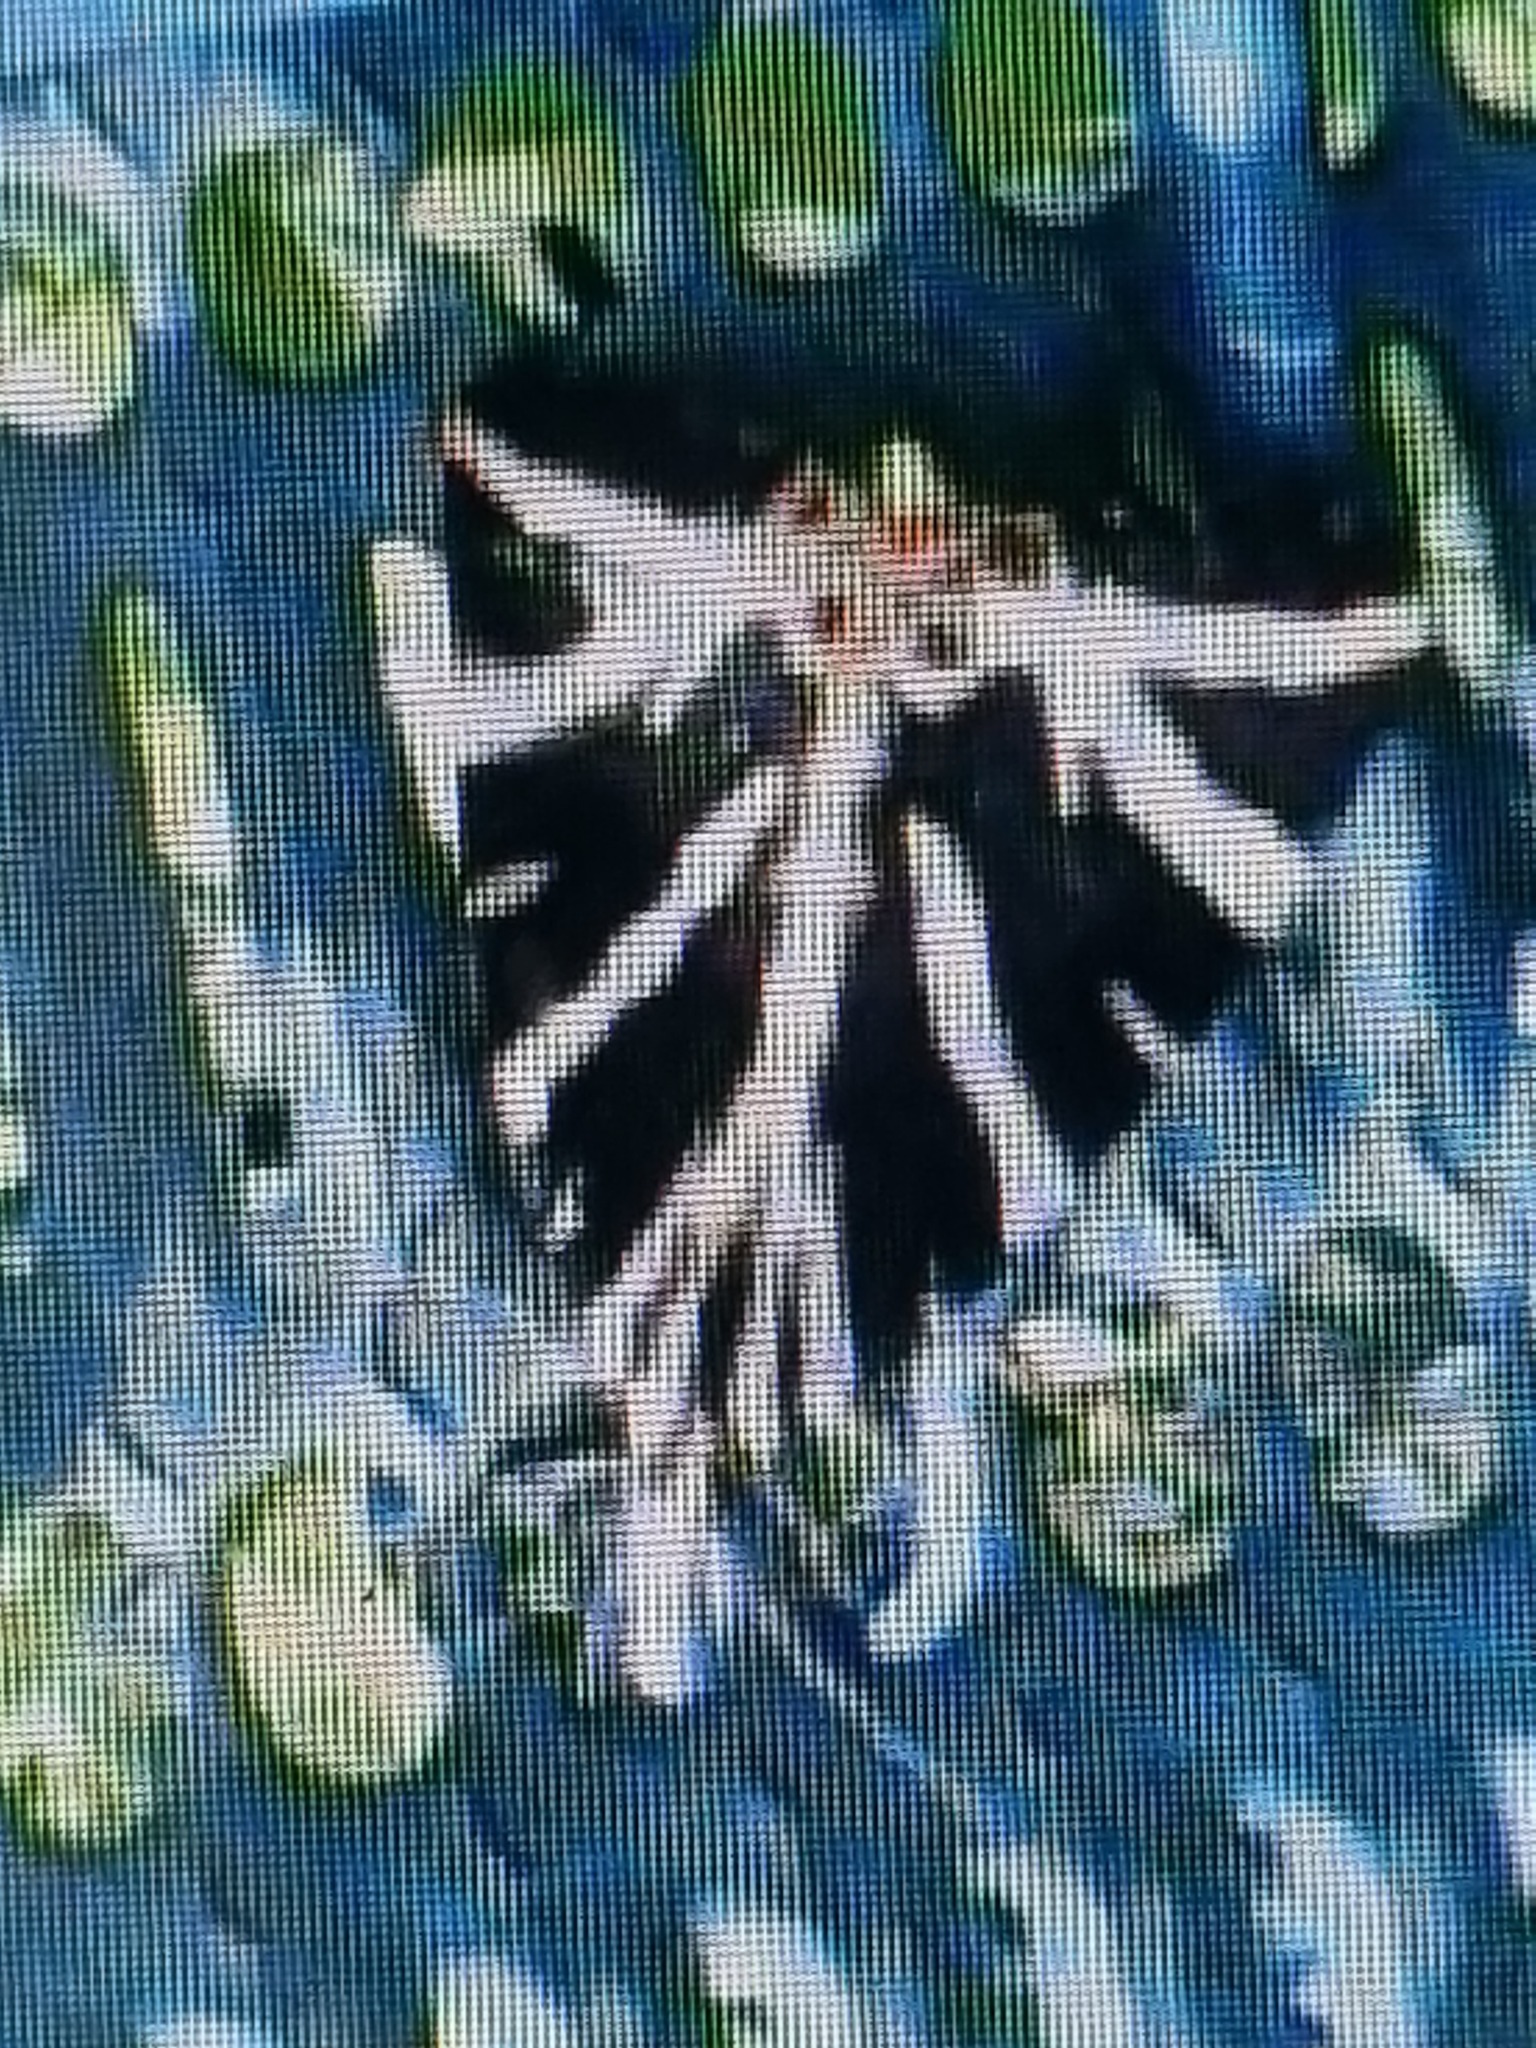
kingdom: Animalia
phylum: Arthropoda
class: Insecta
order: Lepidoptera
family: Erebidae
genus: Euplagia
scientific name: Euplagia quadripunctaria
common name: Jersey tiger
